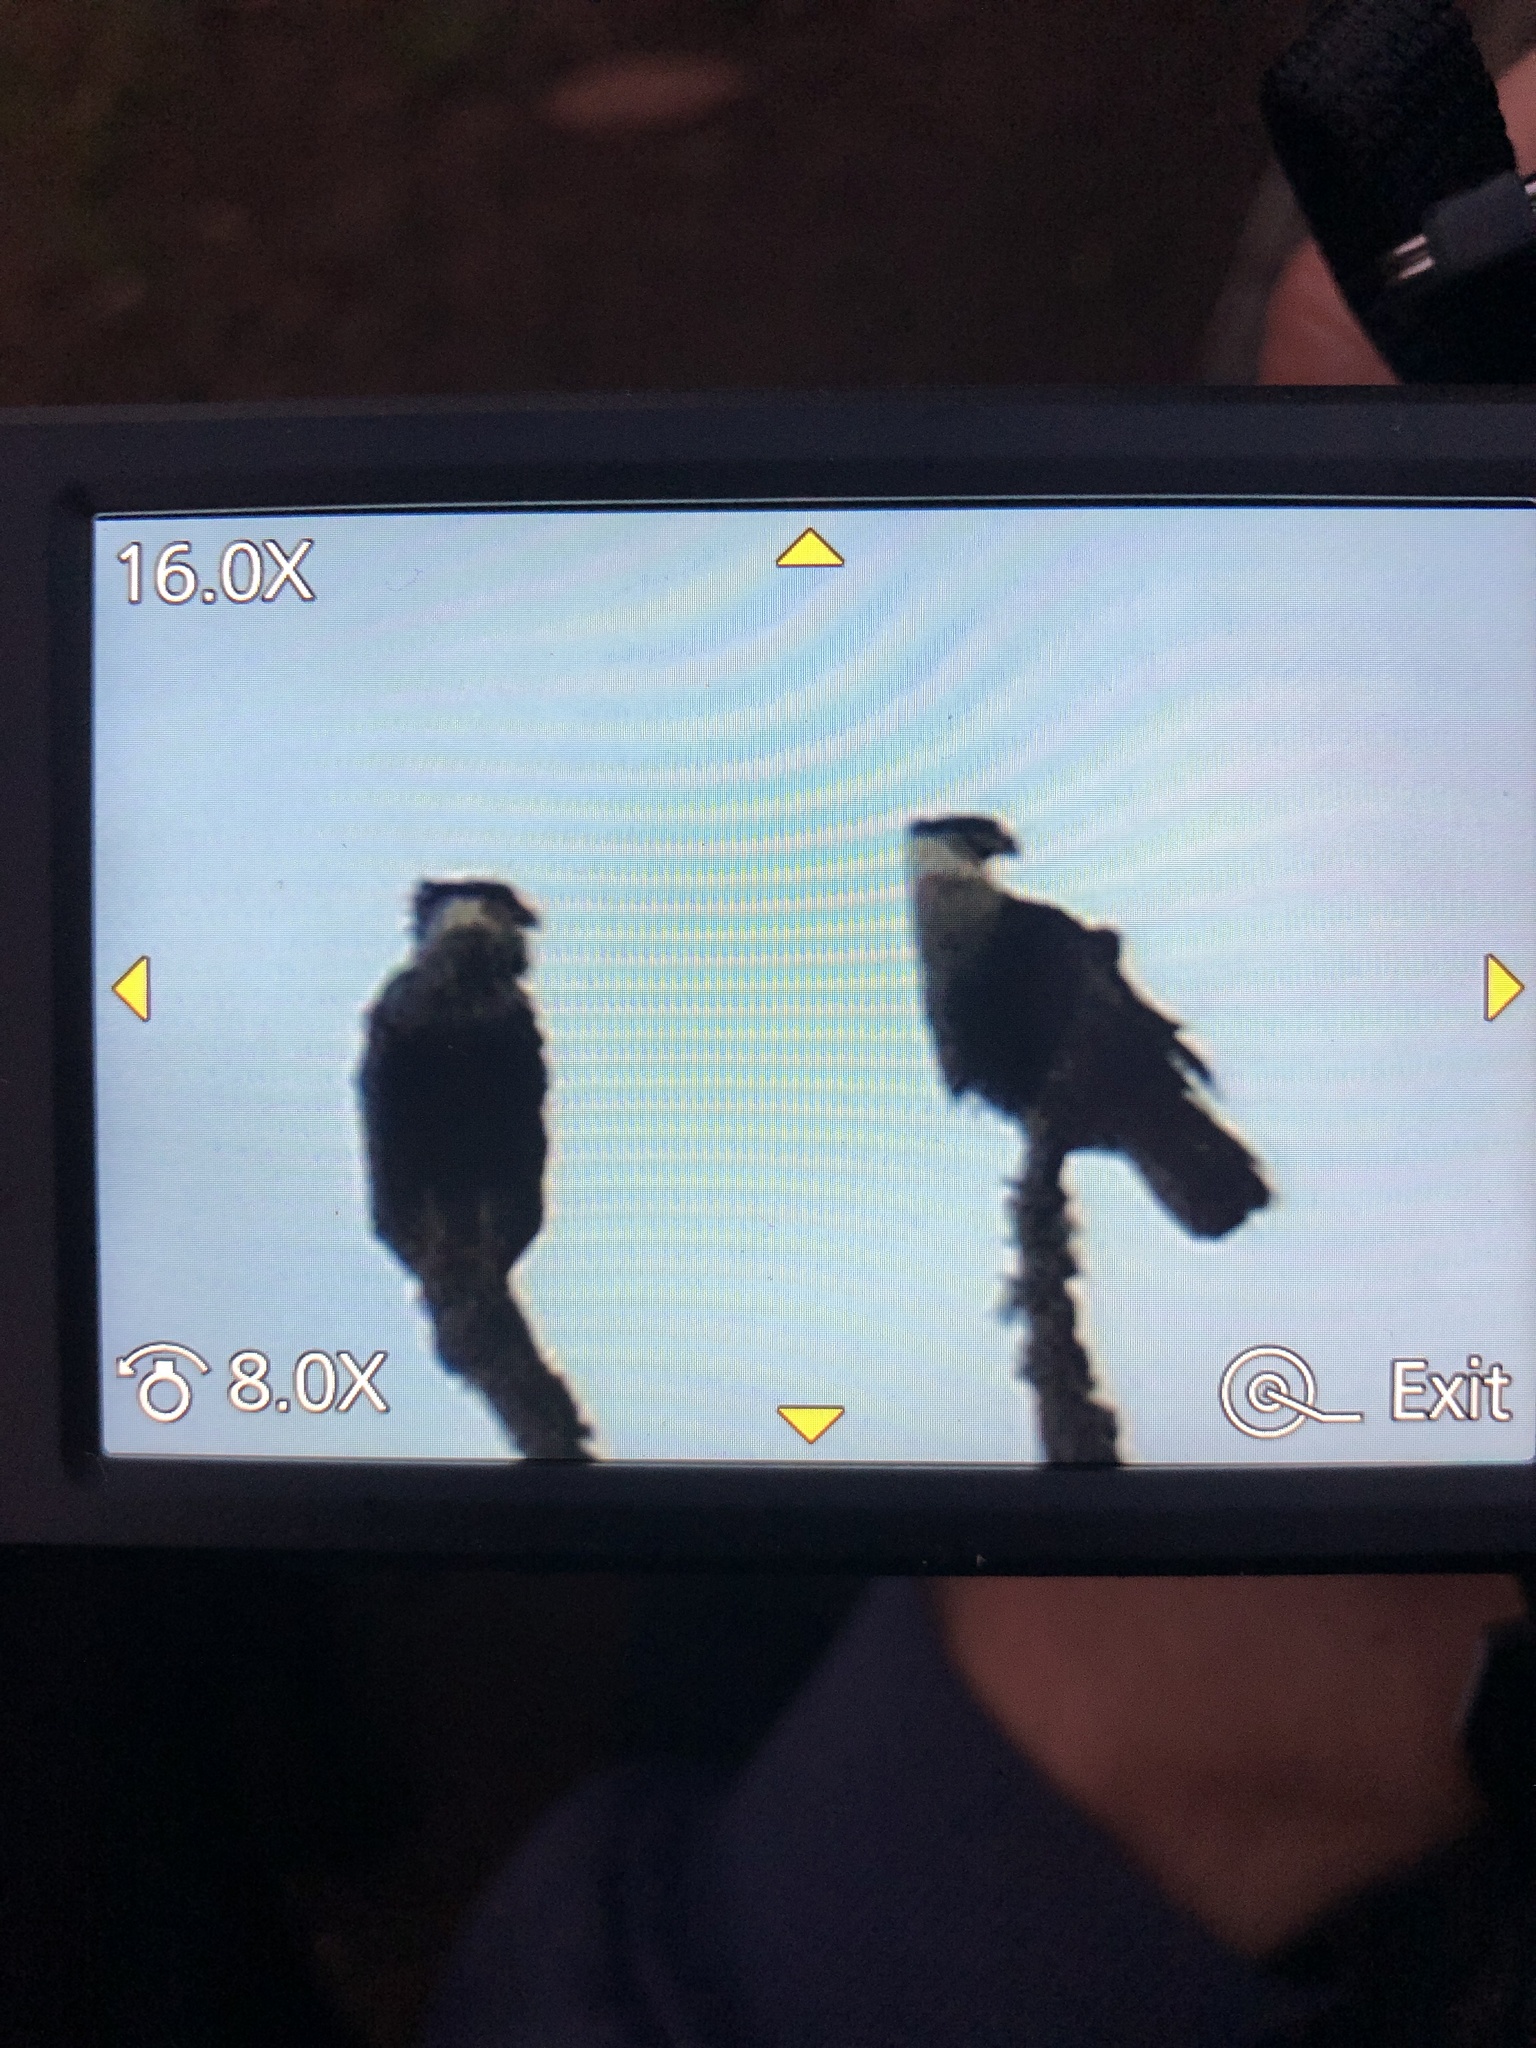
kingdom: Animalia
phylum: Chordata
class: Aves
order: Falconiformes
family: Falconidae
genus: Caracara
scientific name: Caracara plancus
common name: Southern caracara
